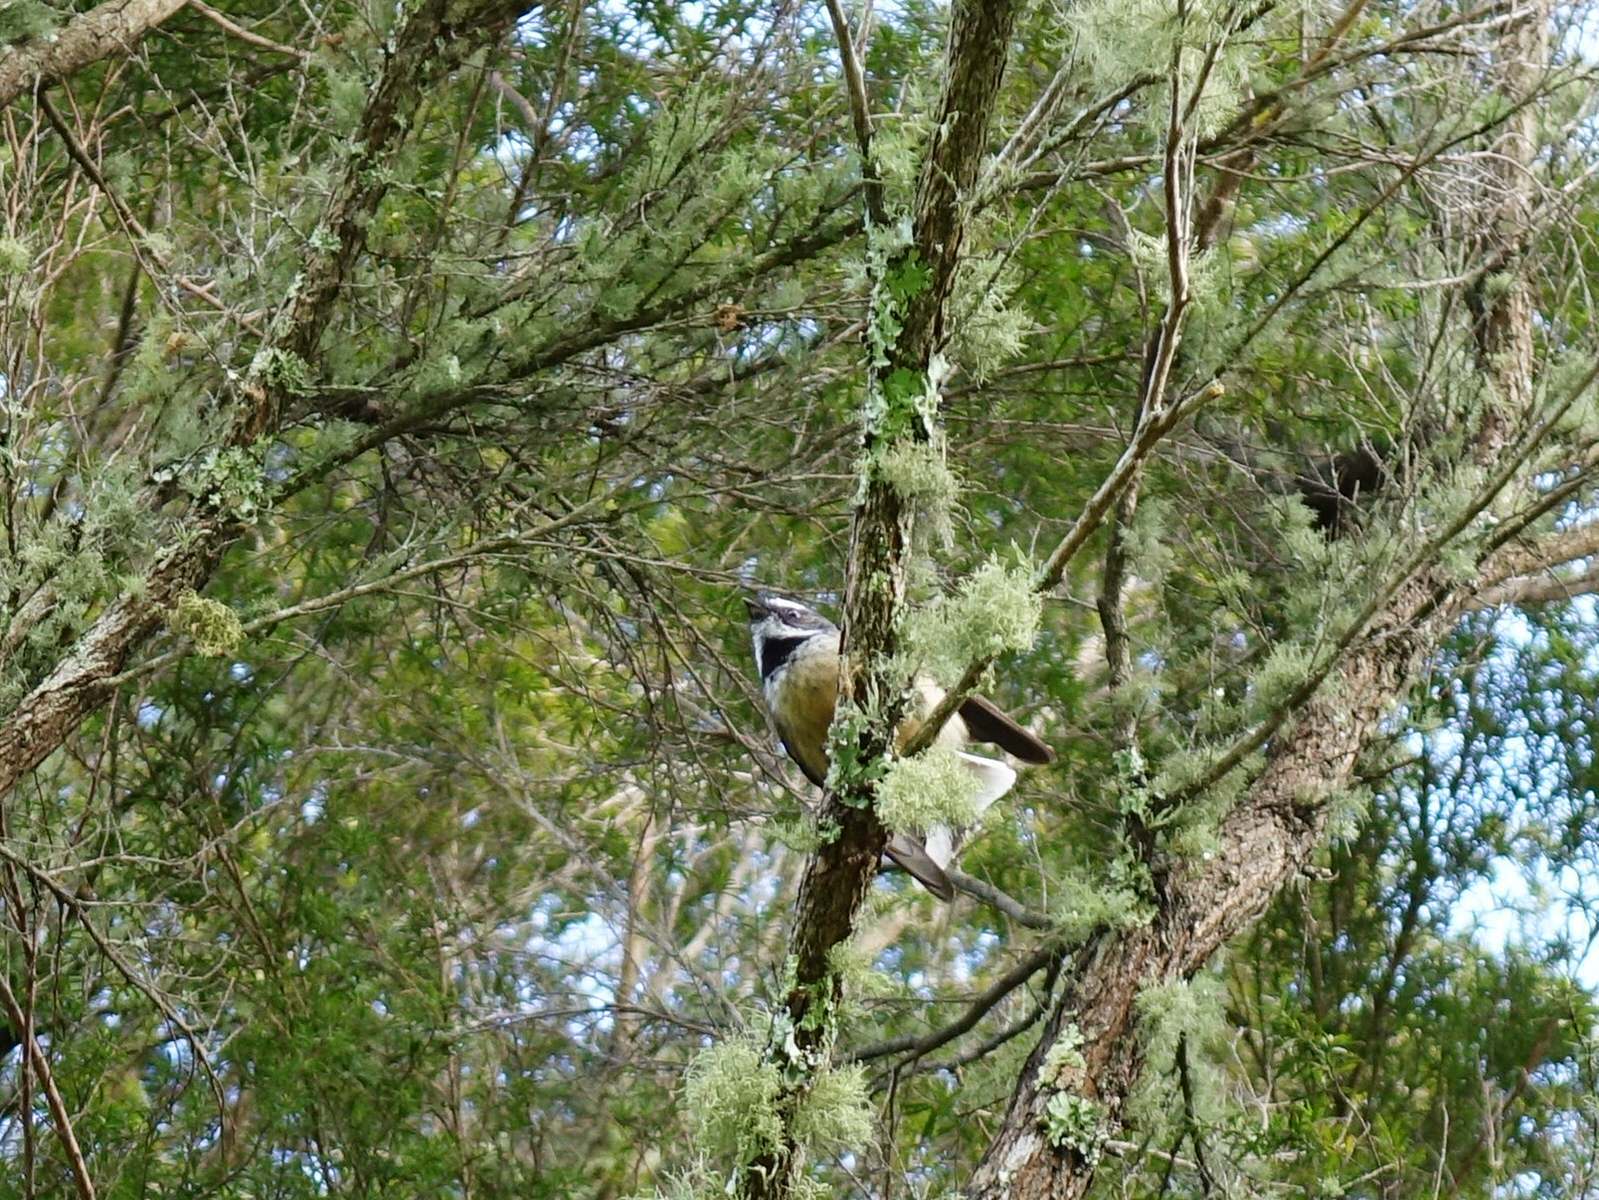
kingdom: Animalia
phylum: Chordata
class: Aves
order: Passeriformes
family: Rhipiduridae
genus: Rhipidura
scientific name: Rhipidura fuliginosa
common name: New zealand fantail
